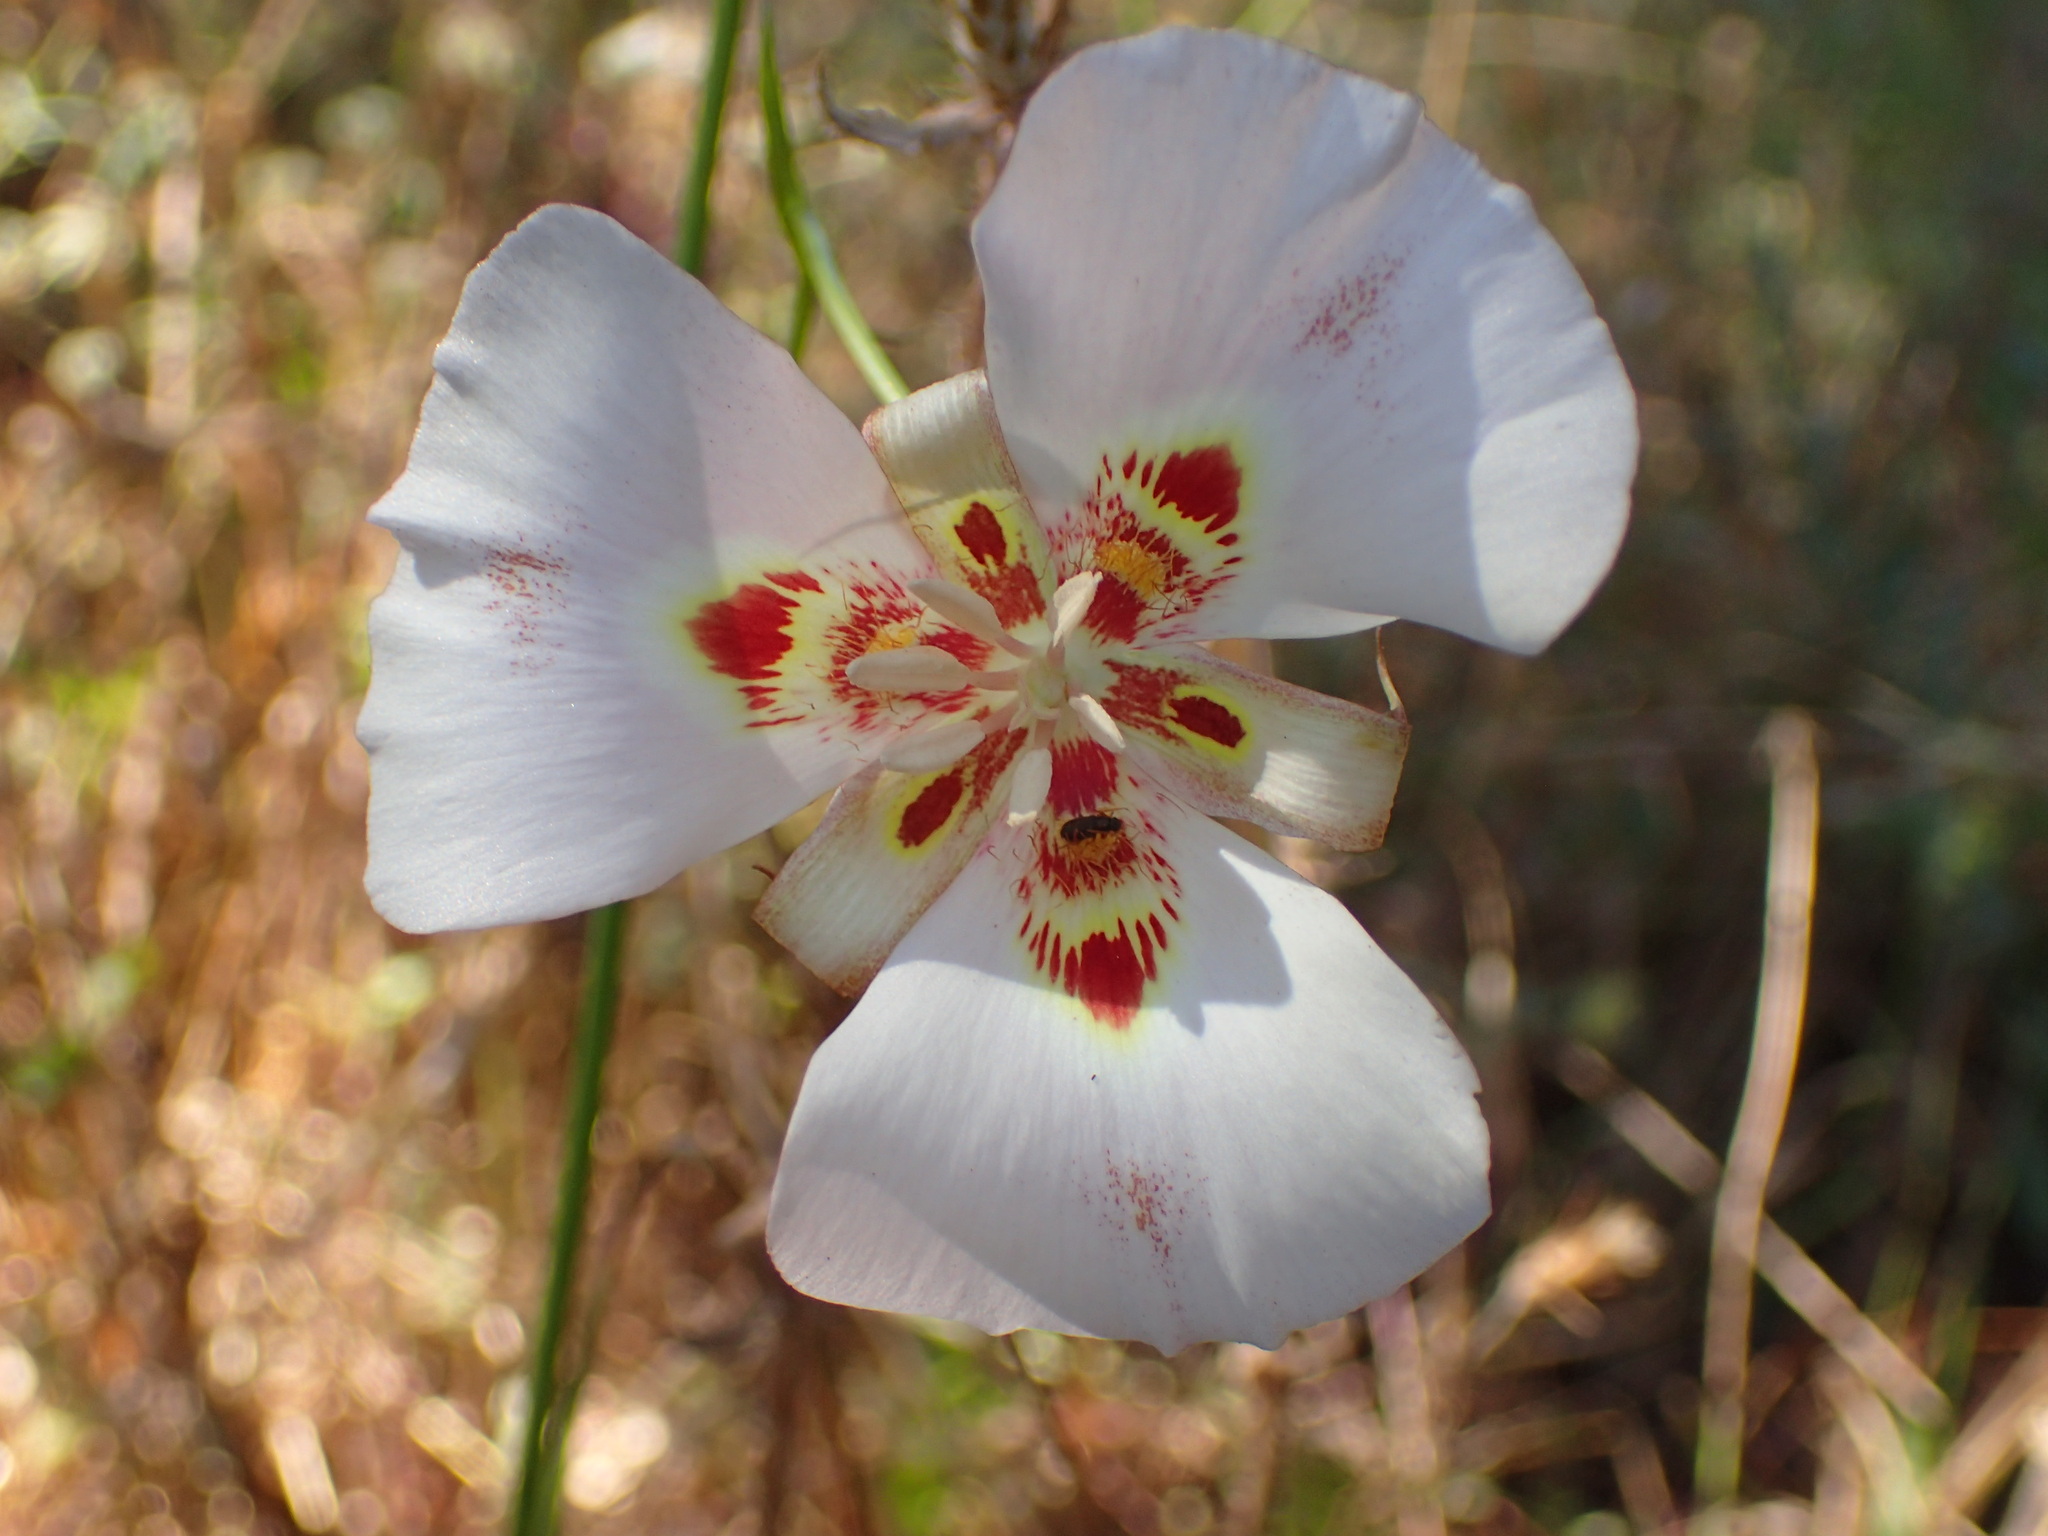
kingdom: Plantae
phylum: Tracheophyta
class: Liliopsida
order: Liliales
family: Liliaceae
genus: Calochortus
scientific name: Calochortus venustus
